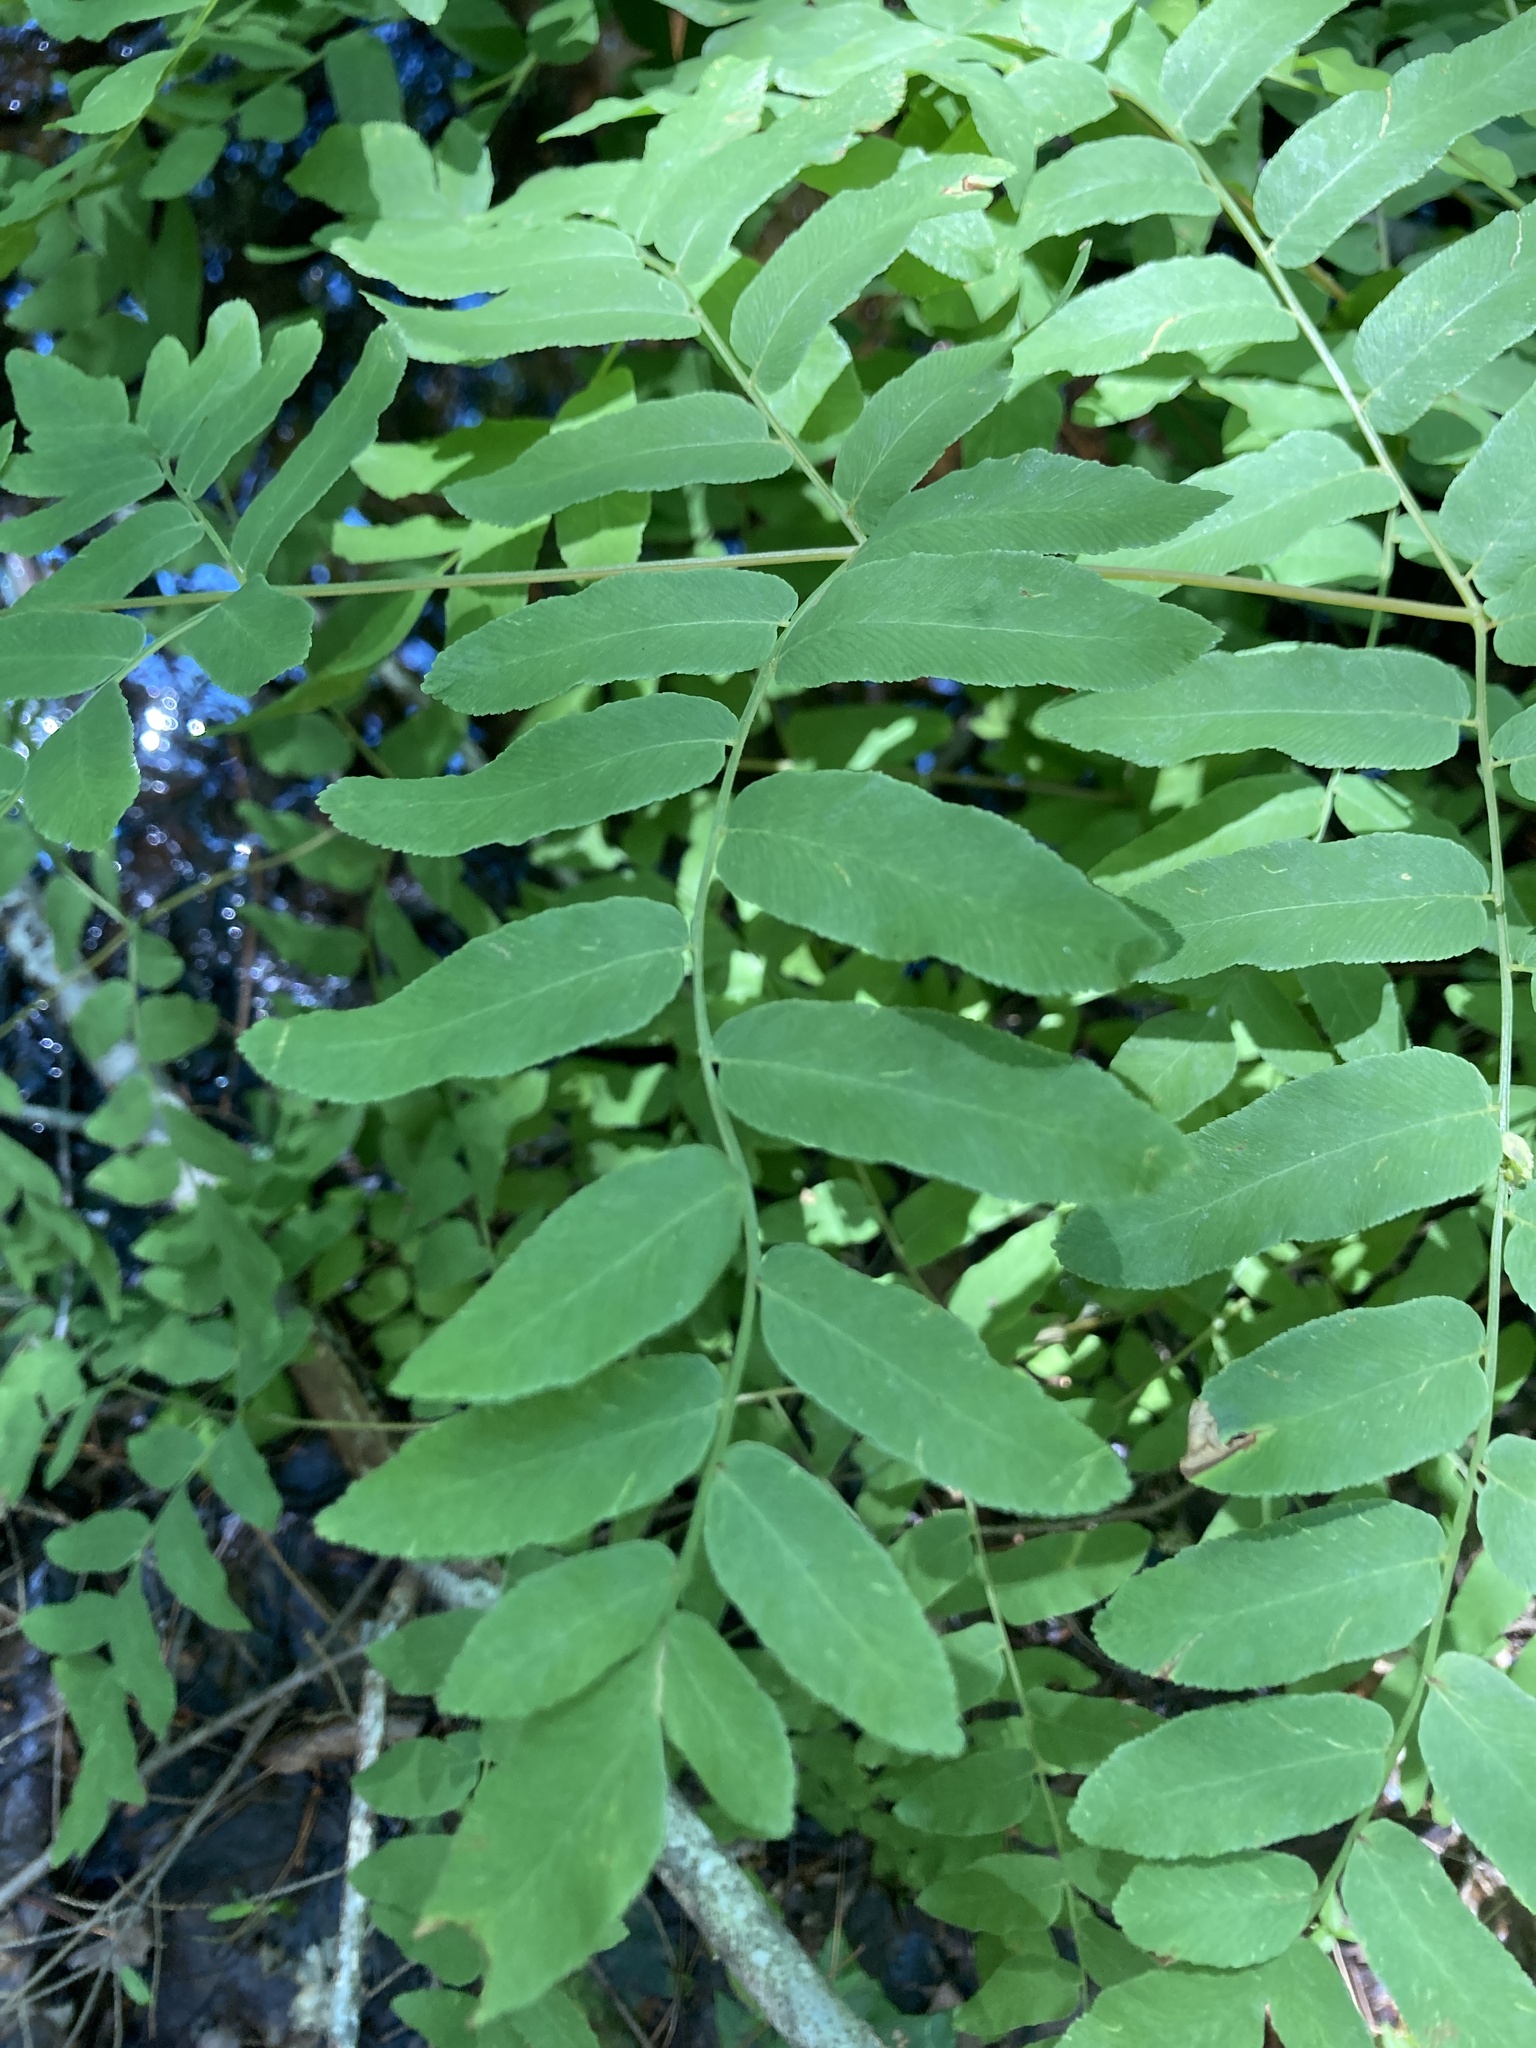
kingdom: Plantae
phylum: Tracheophyta
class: Polypodiopsida
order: Osmundales
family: Osmundaceae
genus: Osmunda
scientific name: Osmunda spectabilis
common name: American royal fern
